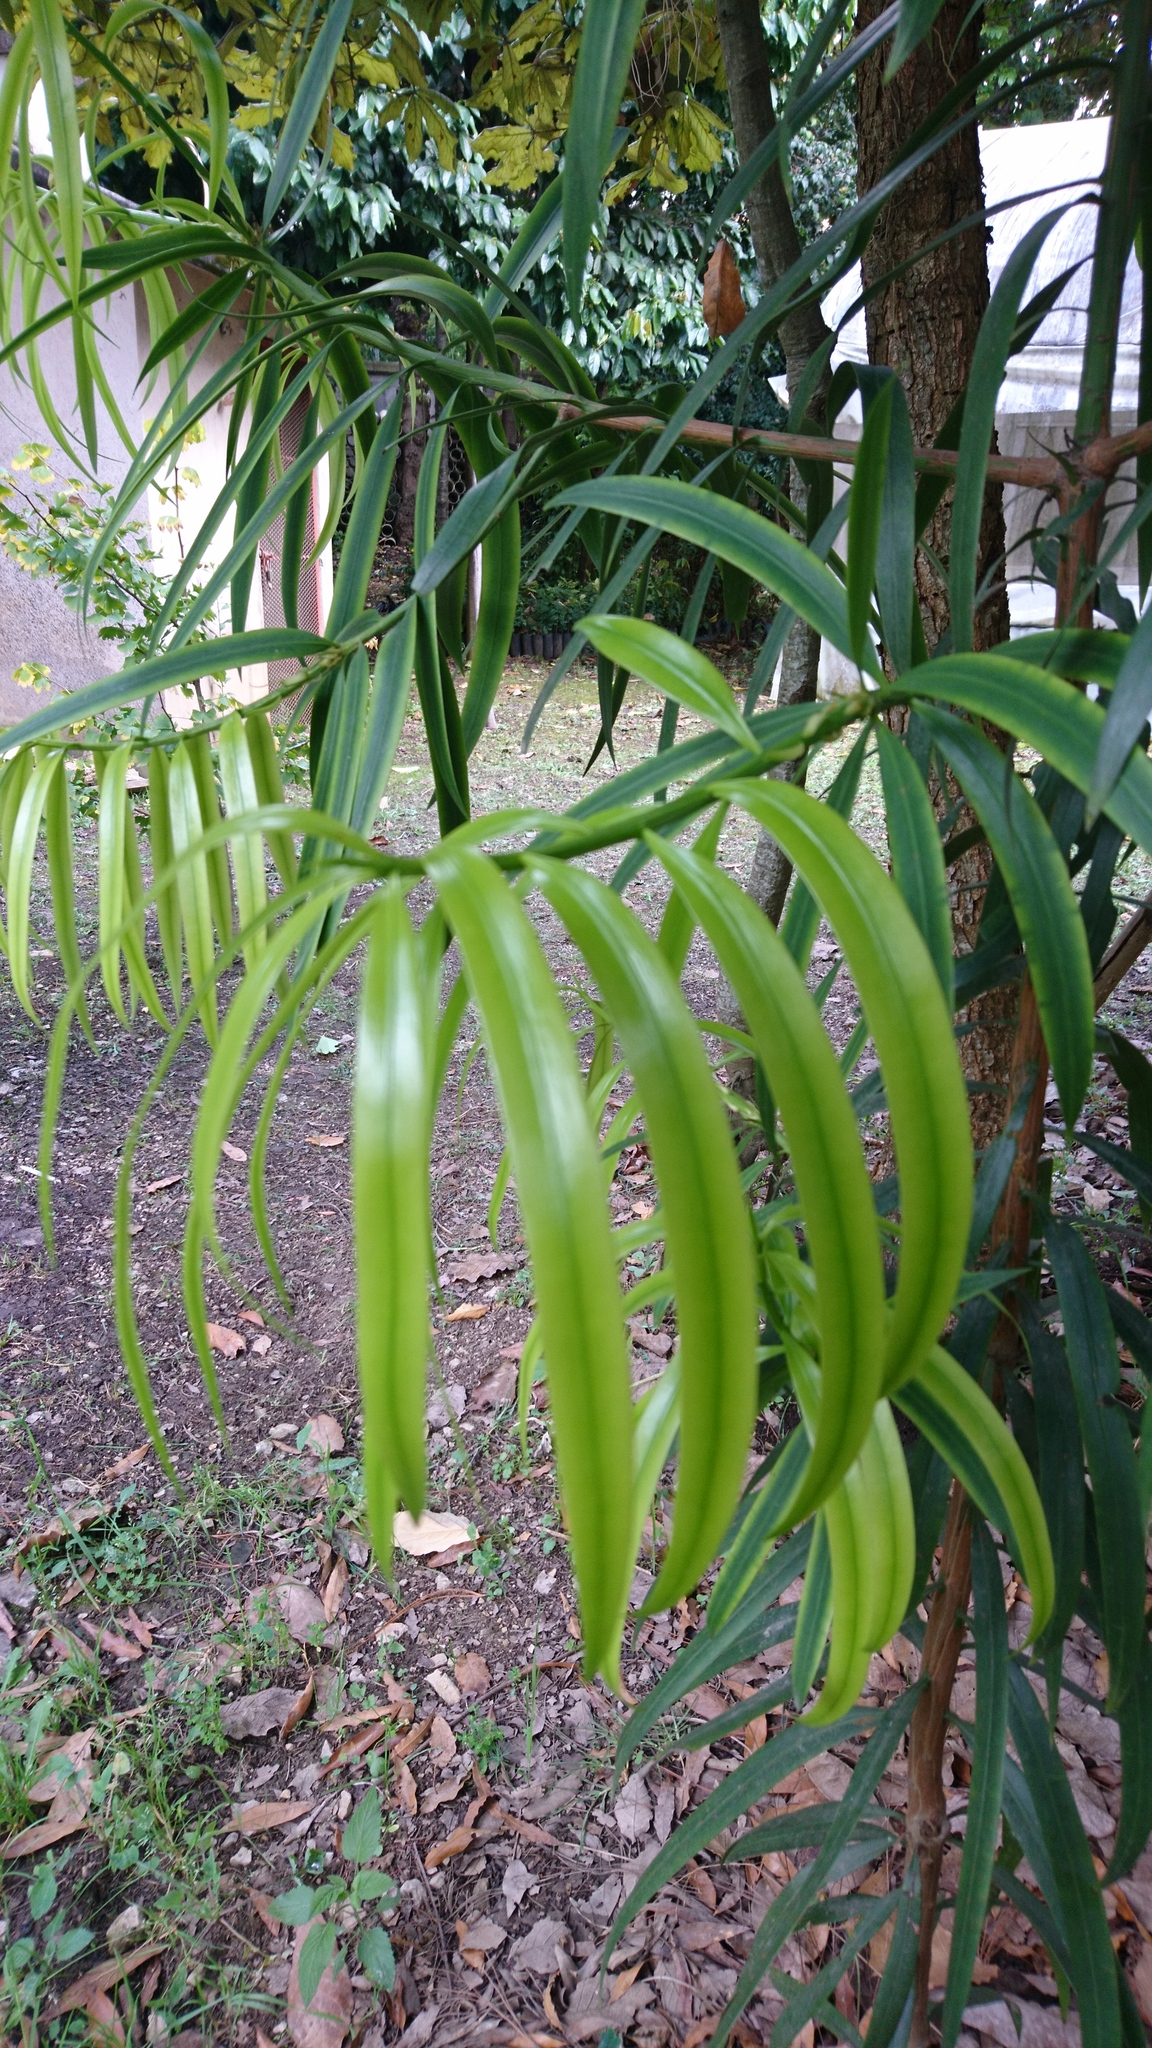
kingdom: Plantae
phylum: Tracheophyta
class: Pinopsida
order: Pinales
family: Podocarpaceae
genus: Podocarpus
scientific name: Podocarpus matudae
